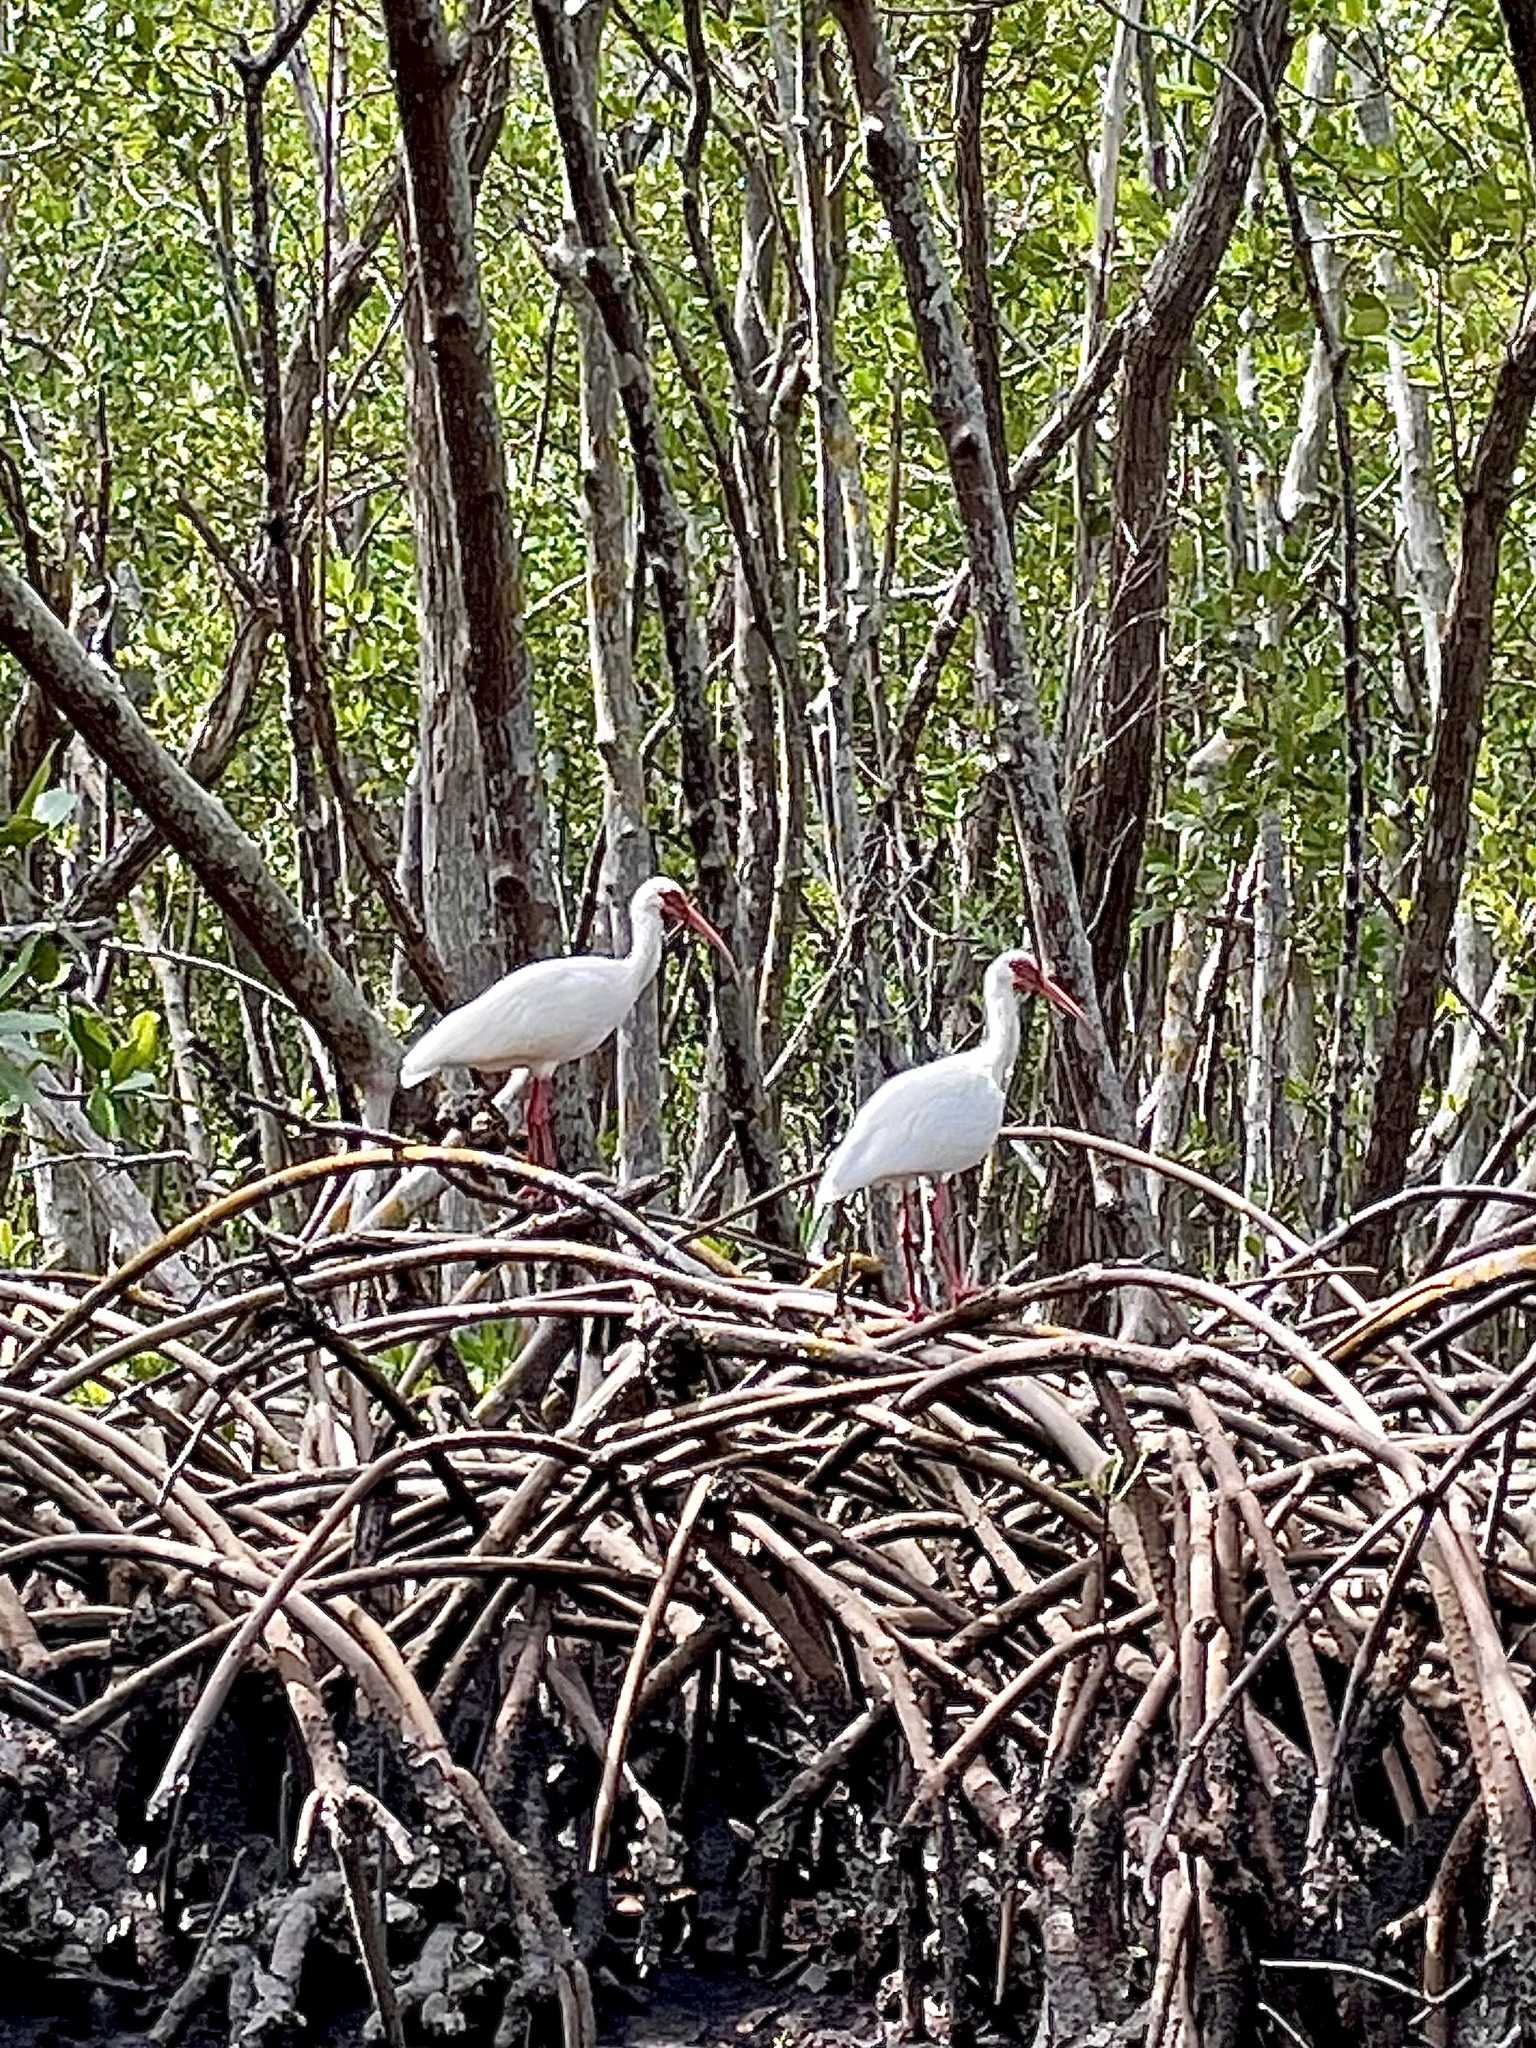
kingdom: Animalia
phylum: Chordata
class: Aves
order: Pelecaniformes
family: Threskiornithidae
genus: Eudocimus
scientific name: Eudocimus albus
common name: White ibis
